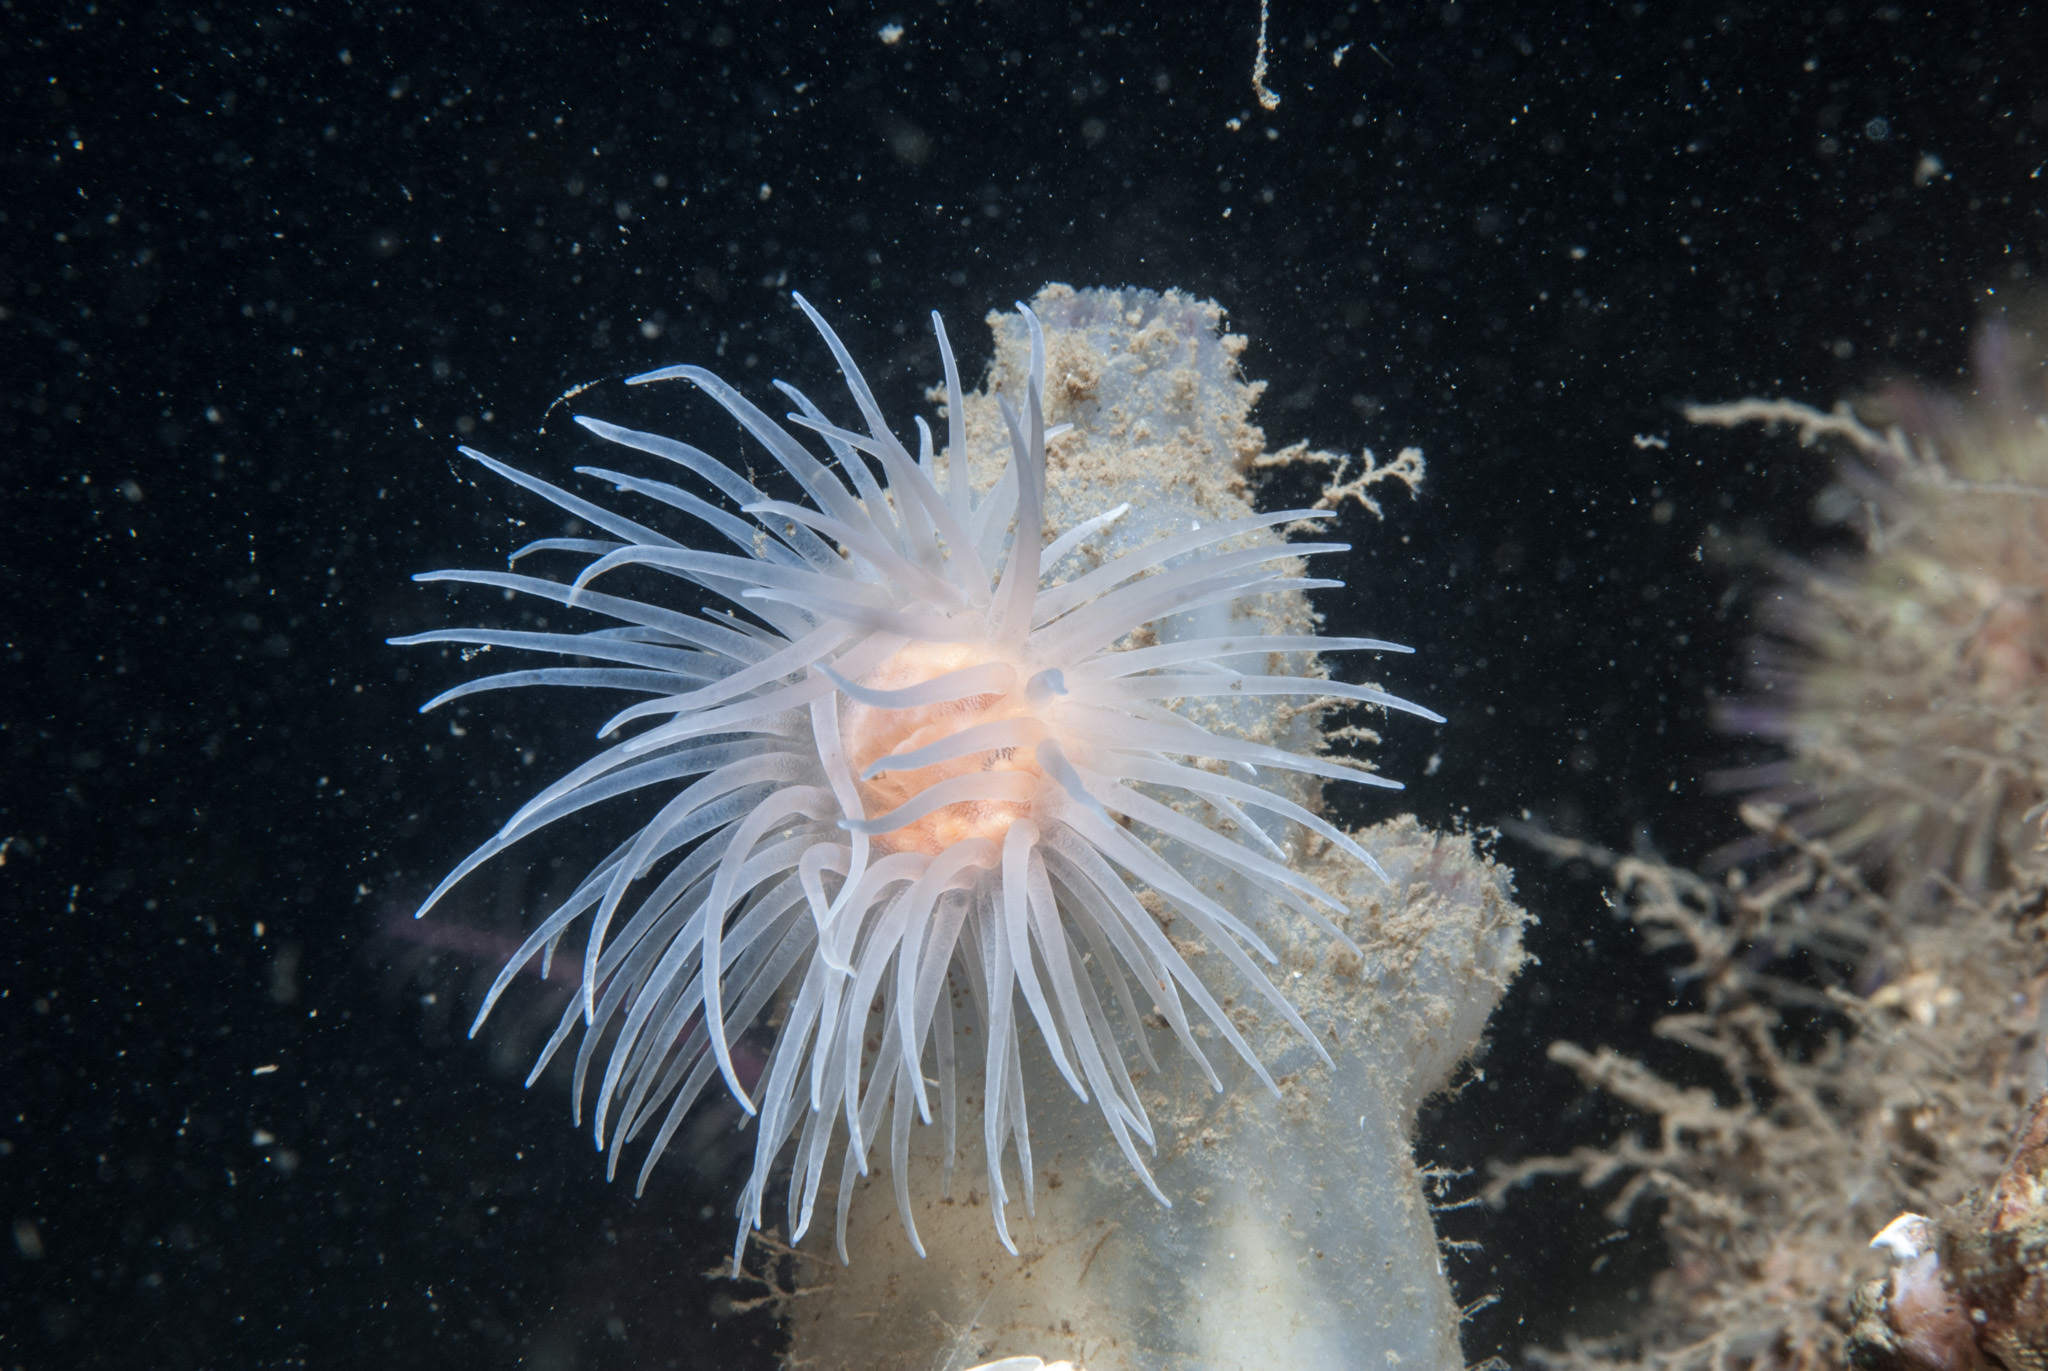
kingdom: Animalia
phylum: Cnidaria
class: Anthozoa
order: Actiniaria
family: Gonactiniidae
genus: Protanthea
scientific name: Protanthea simplex
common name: Sealoch anemone
